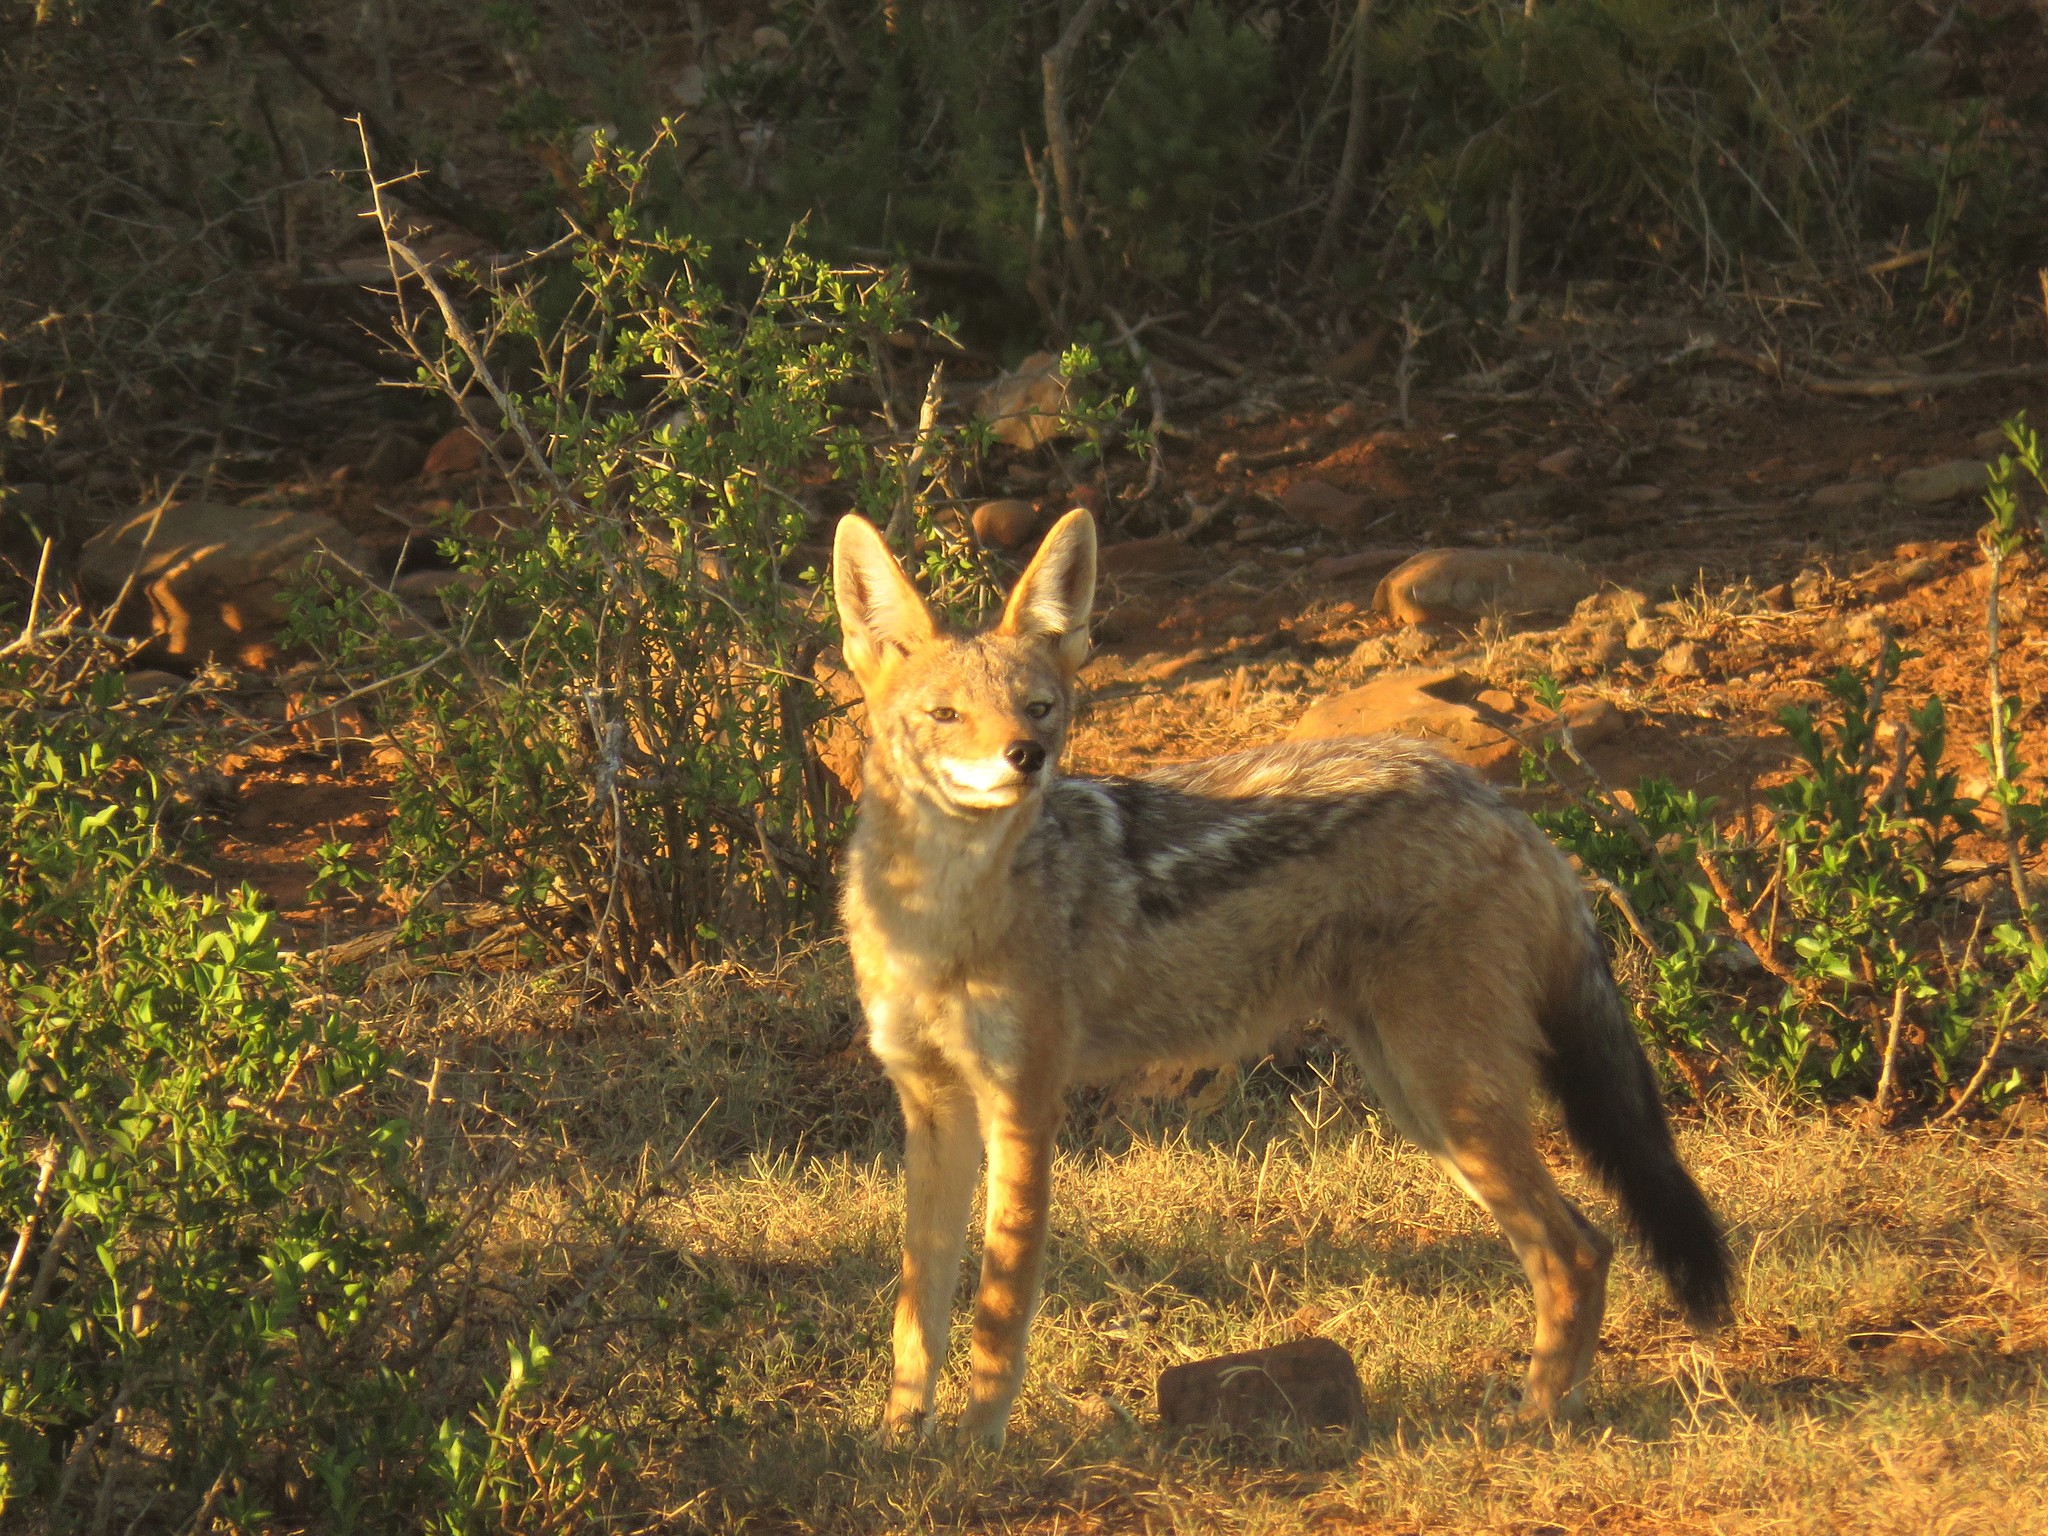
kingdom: Animalia
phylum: Chordata
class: Mammalia
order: Carnivora
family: Canidae
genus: Lupulella
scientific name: Lupulella
